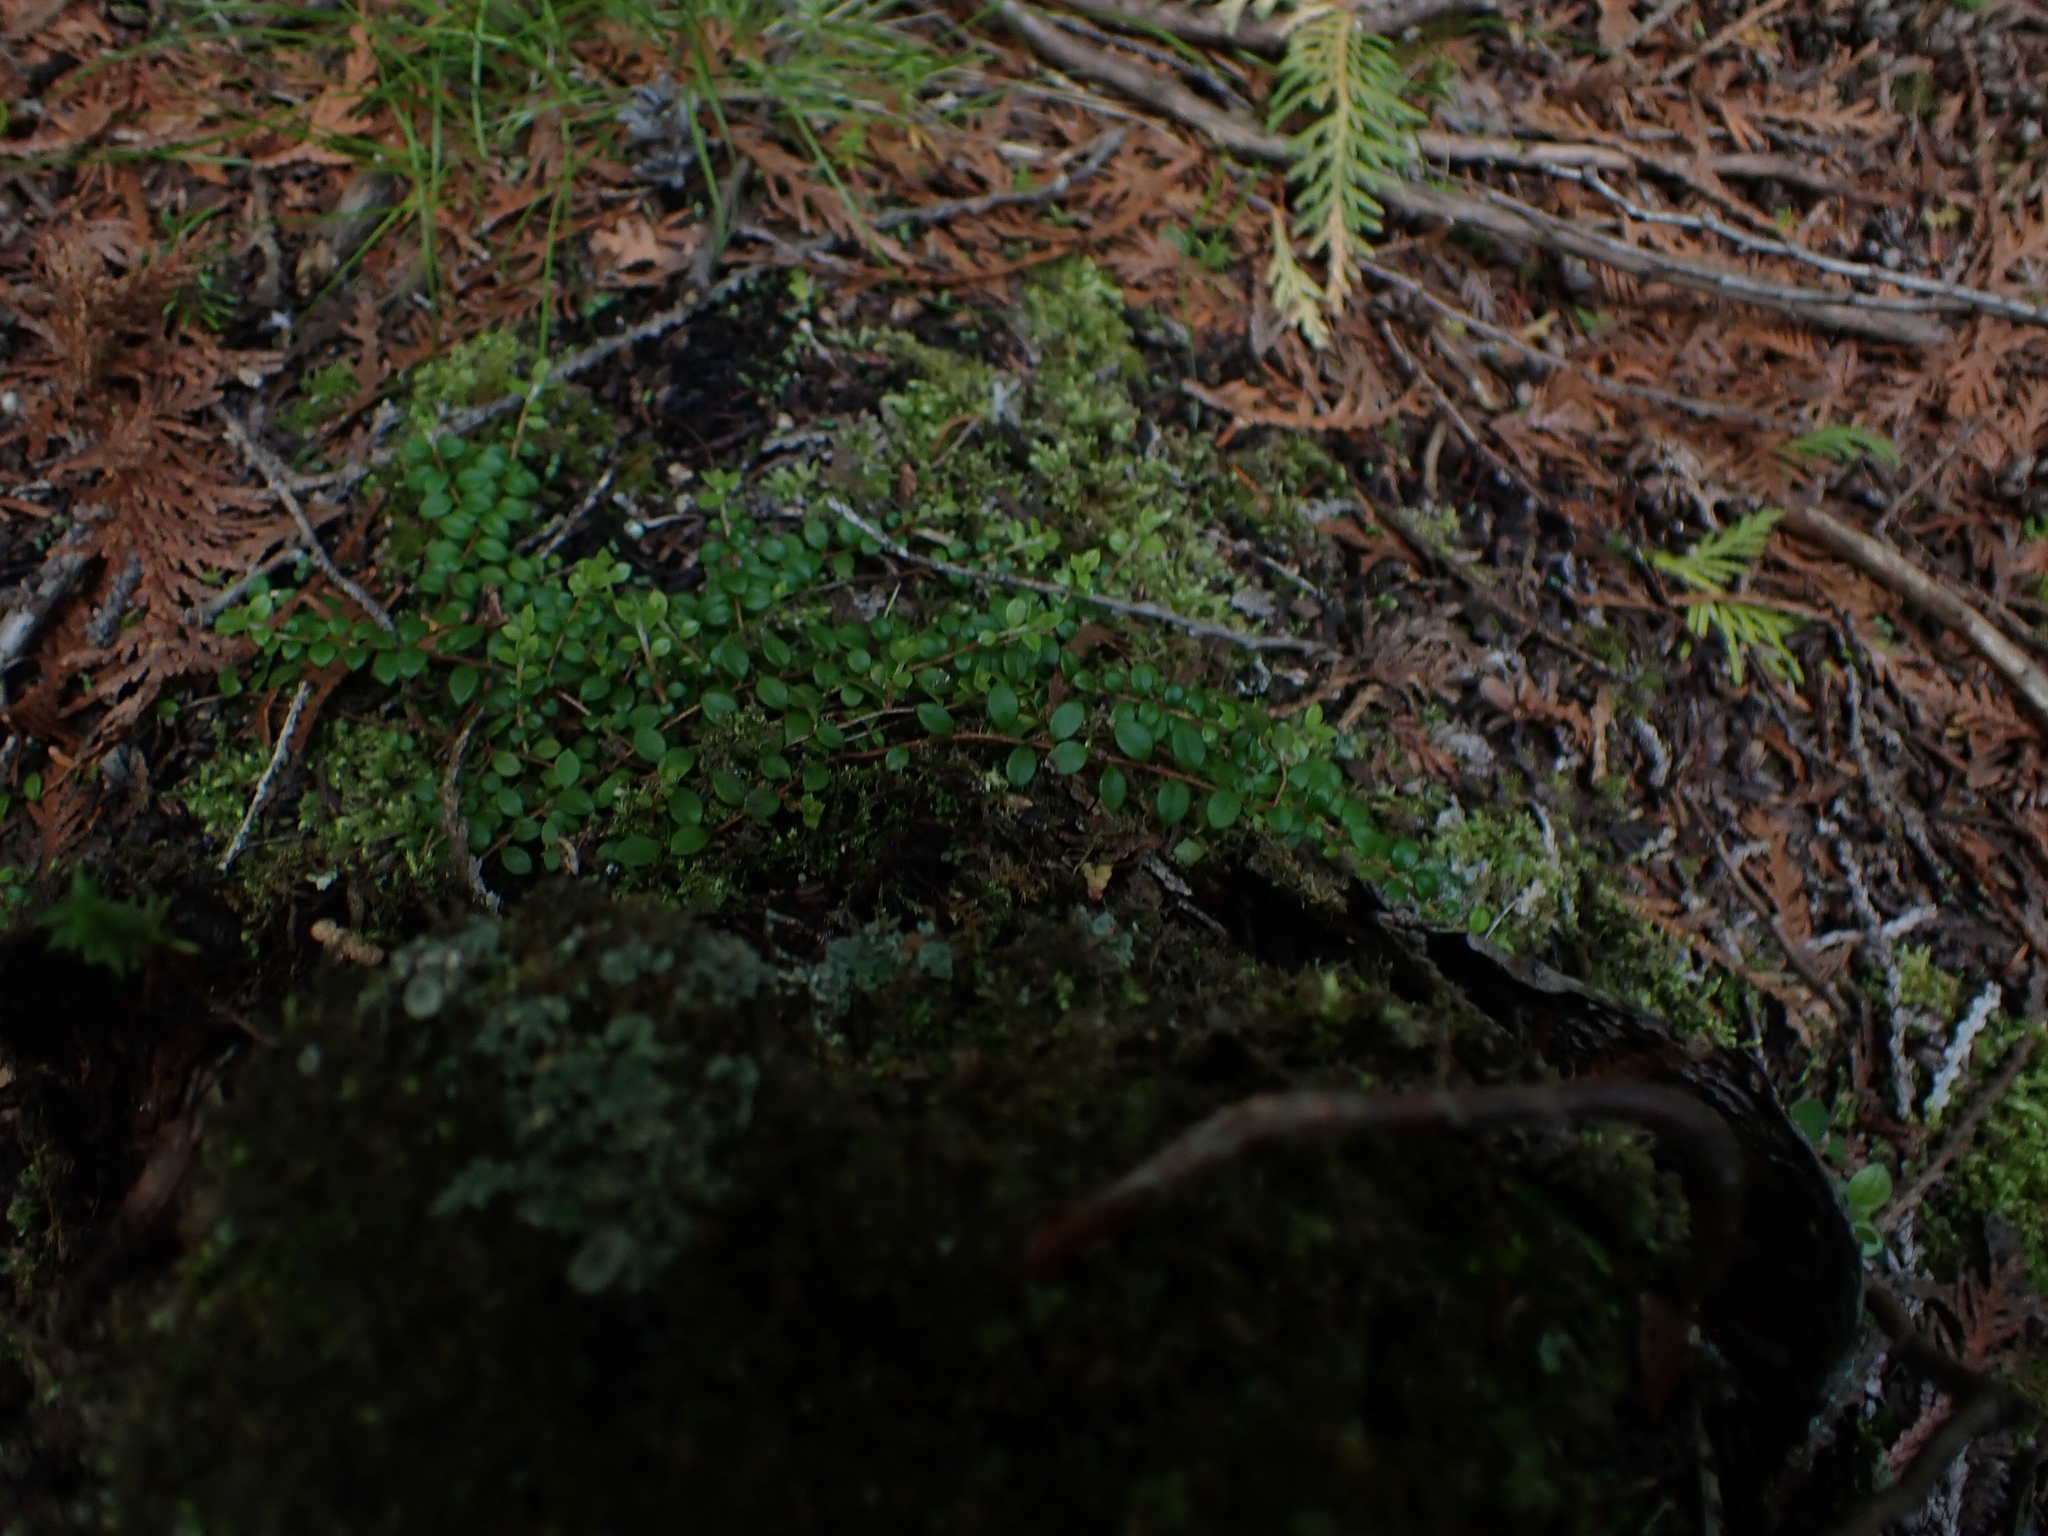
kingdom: Plantae
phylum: Tracheophyta
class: Magnoliopsida
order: Ericales
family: Ericaceae
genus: Gaultheria
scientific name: Gaultheria hispidula
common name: Cancer wintergreen
